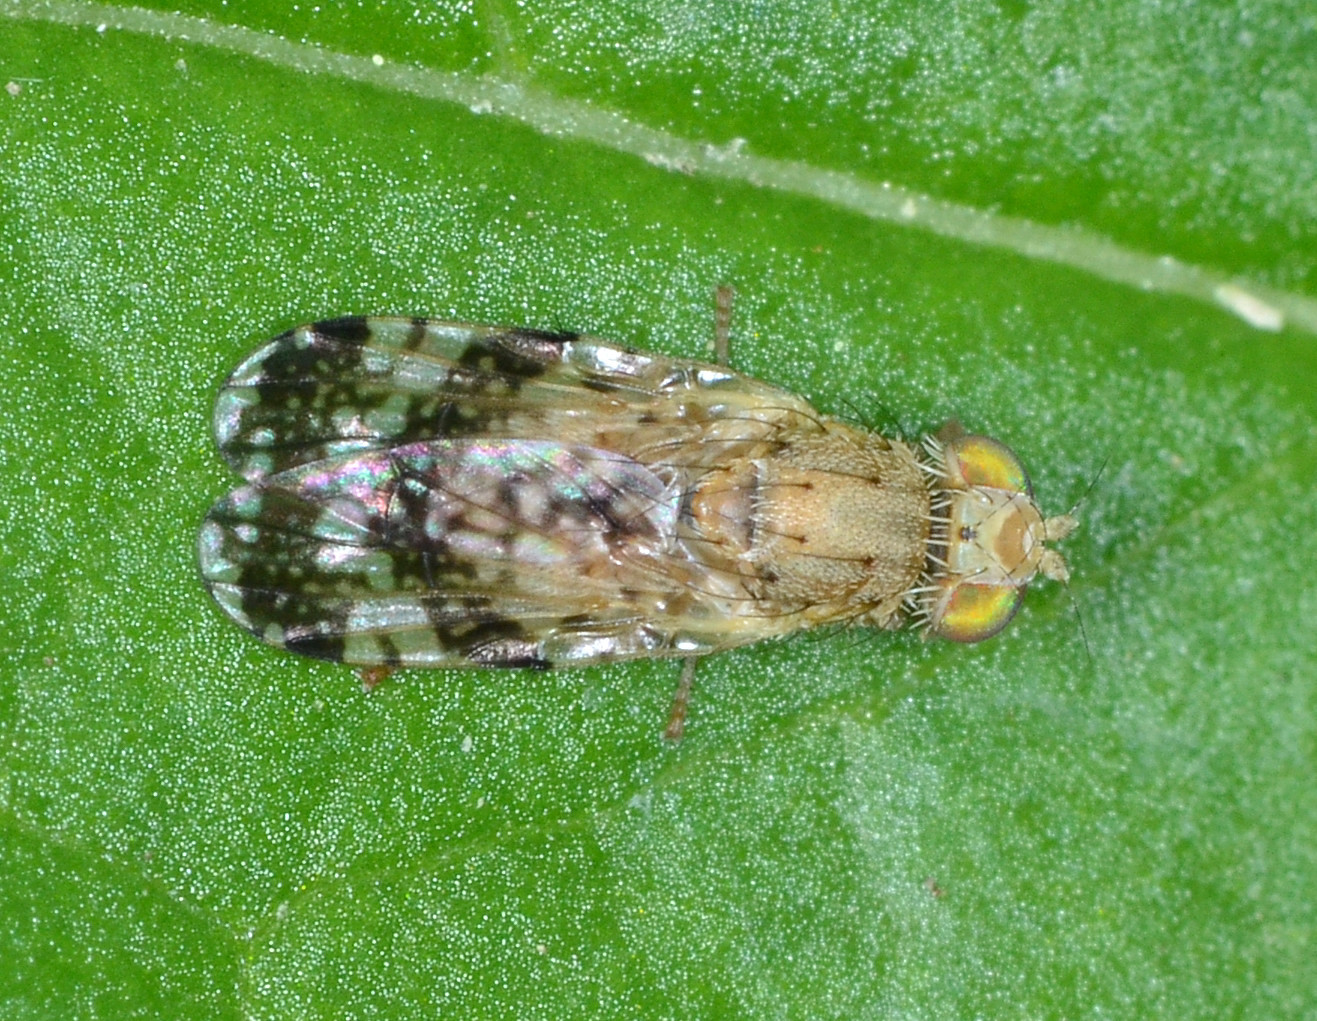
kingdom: Animalia
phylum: Arthropoda
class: Insecta
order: Diptera
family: Tephritidae
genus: Tephritis
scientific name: Tephritis californica
